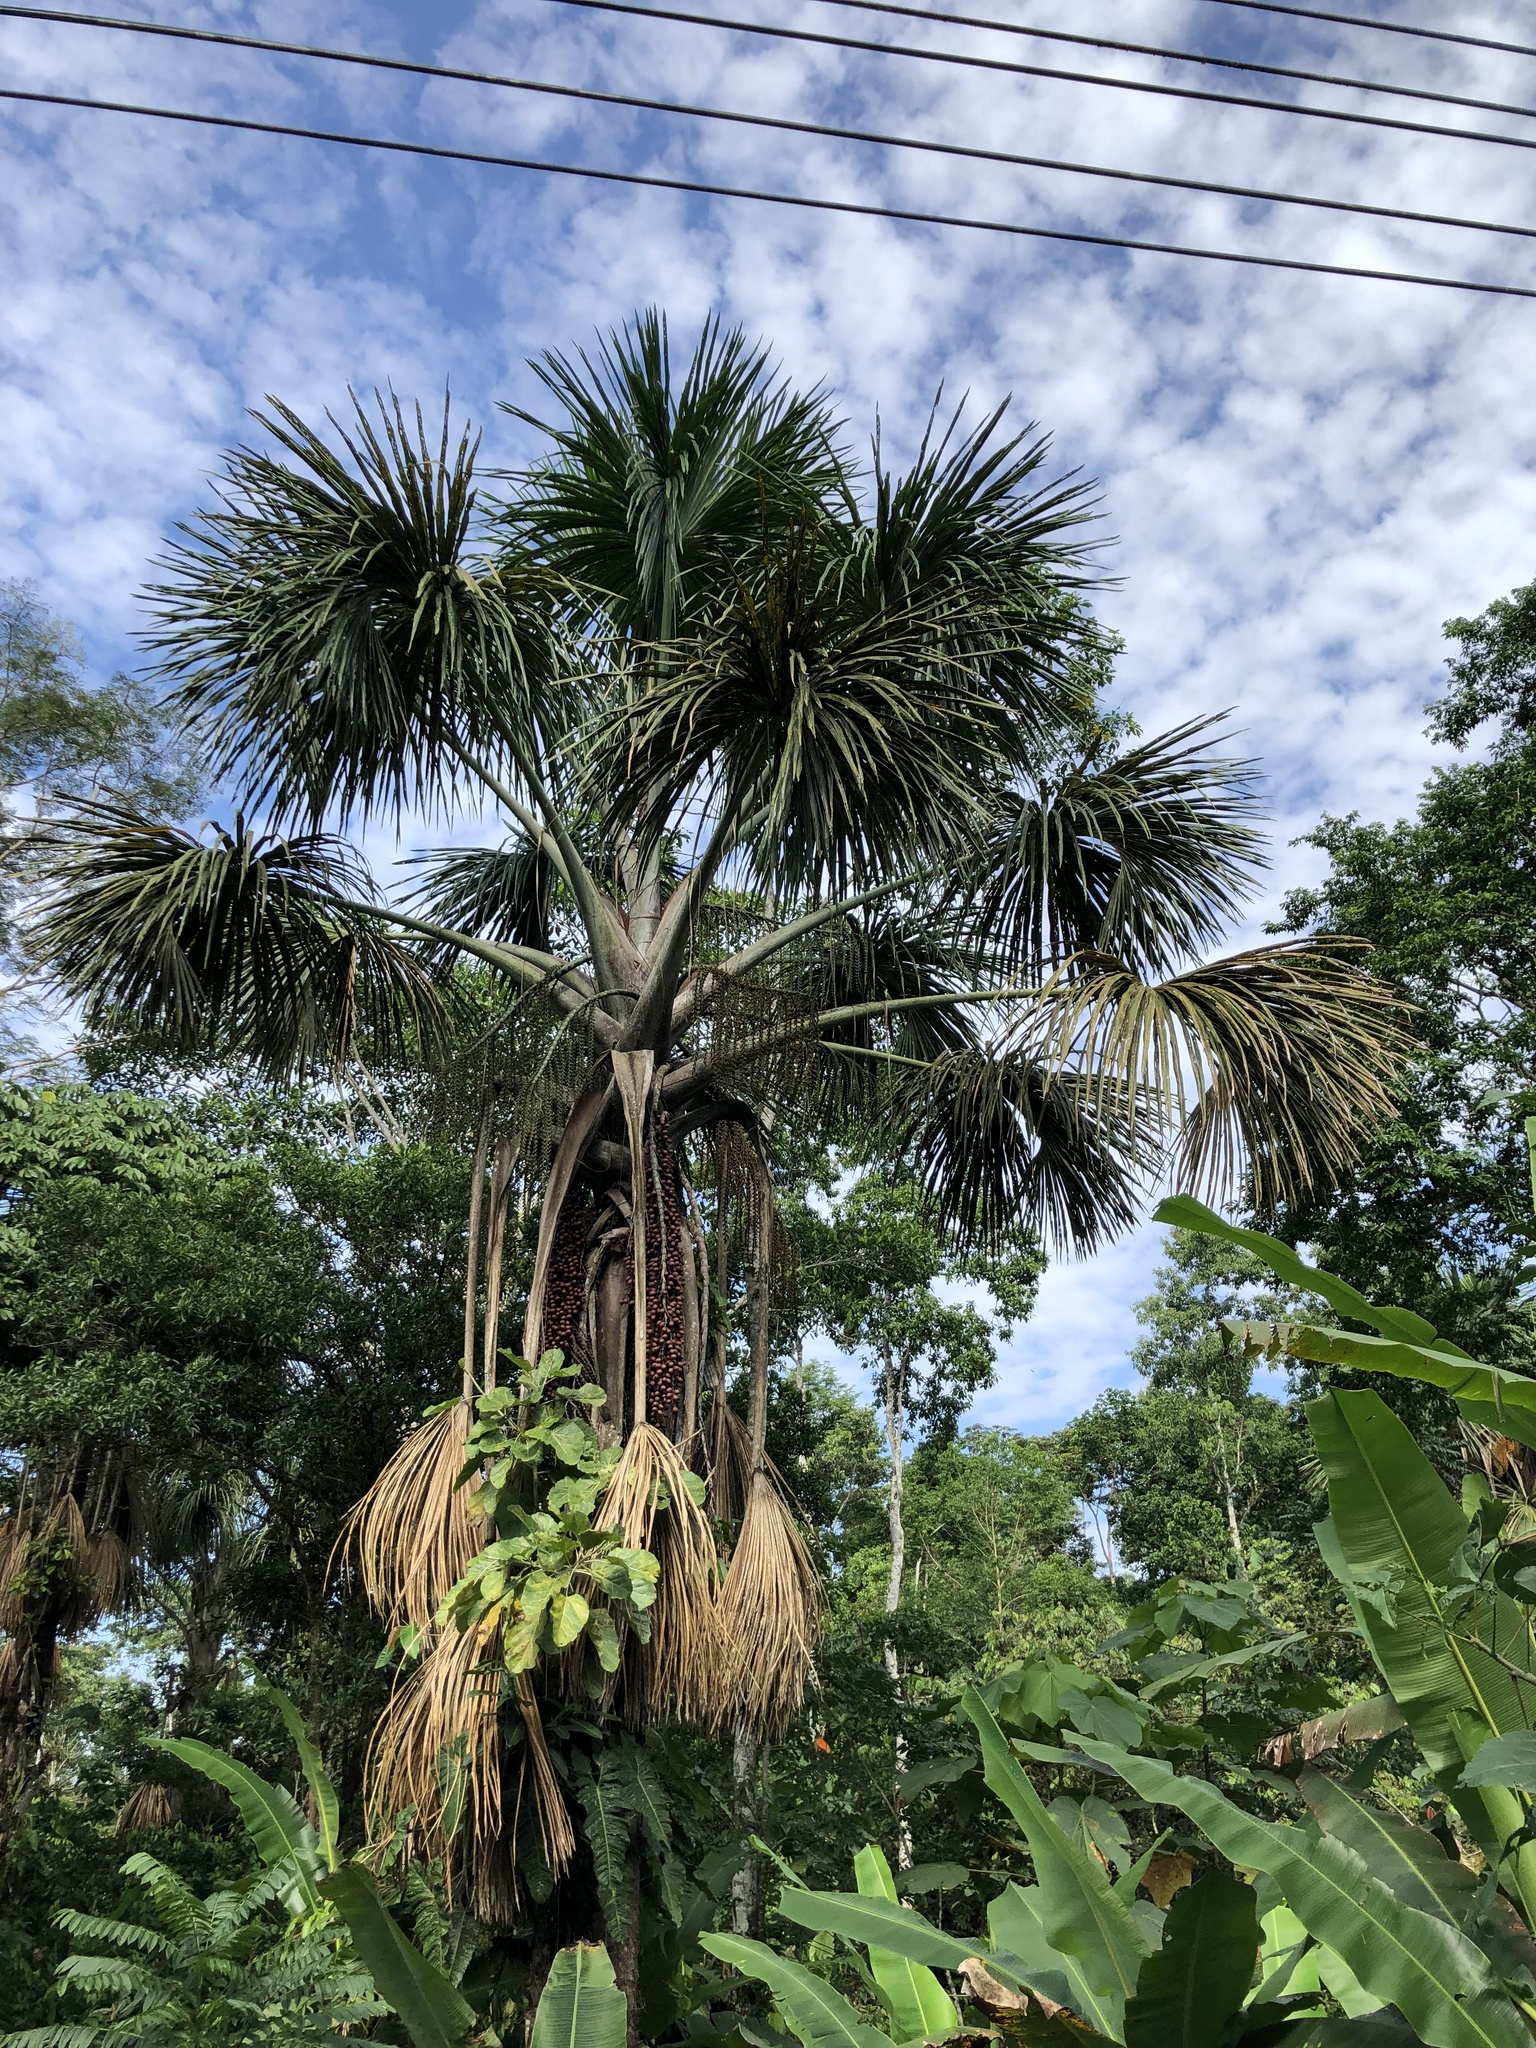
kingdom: Plantae
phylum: Tracheophyta
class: Liliopsida
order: Arecales
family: Arecaceae
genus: Mauritia
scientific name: Mauritia flexuosa
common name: Tree-of-life
